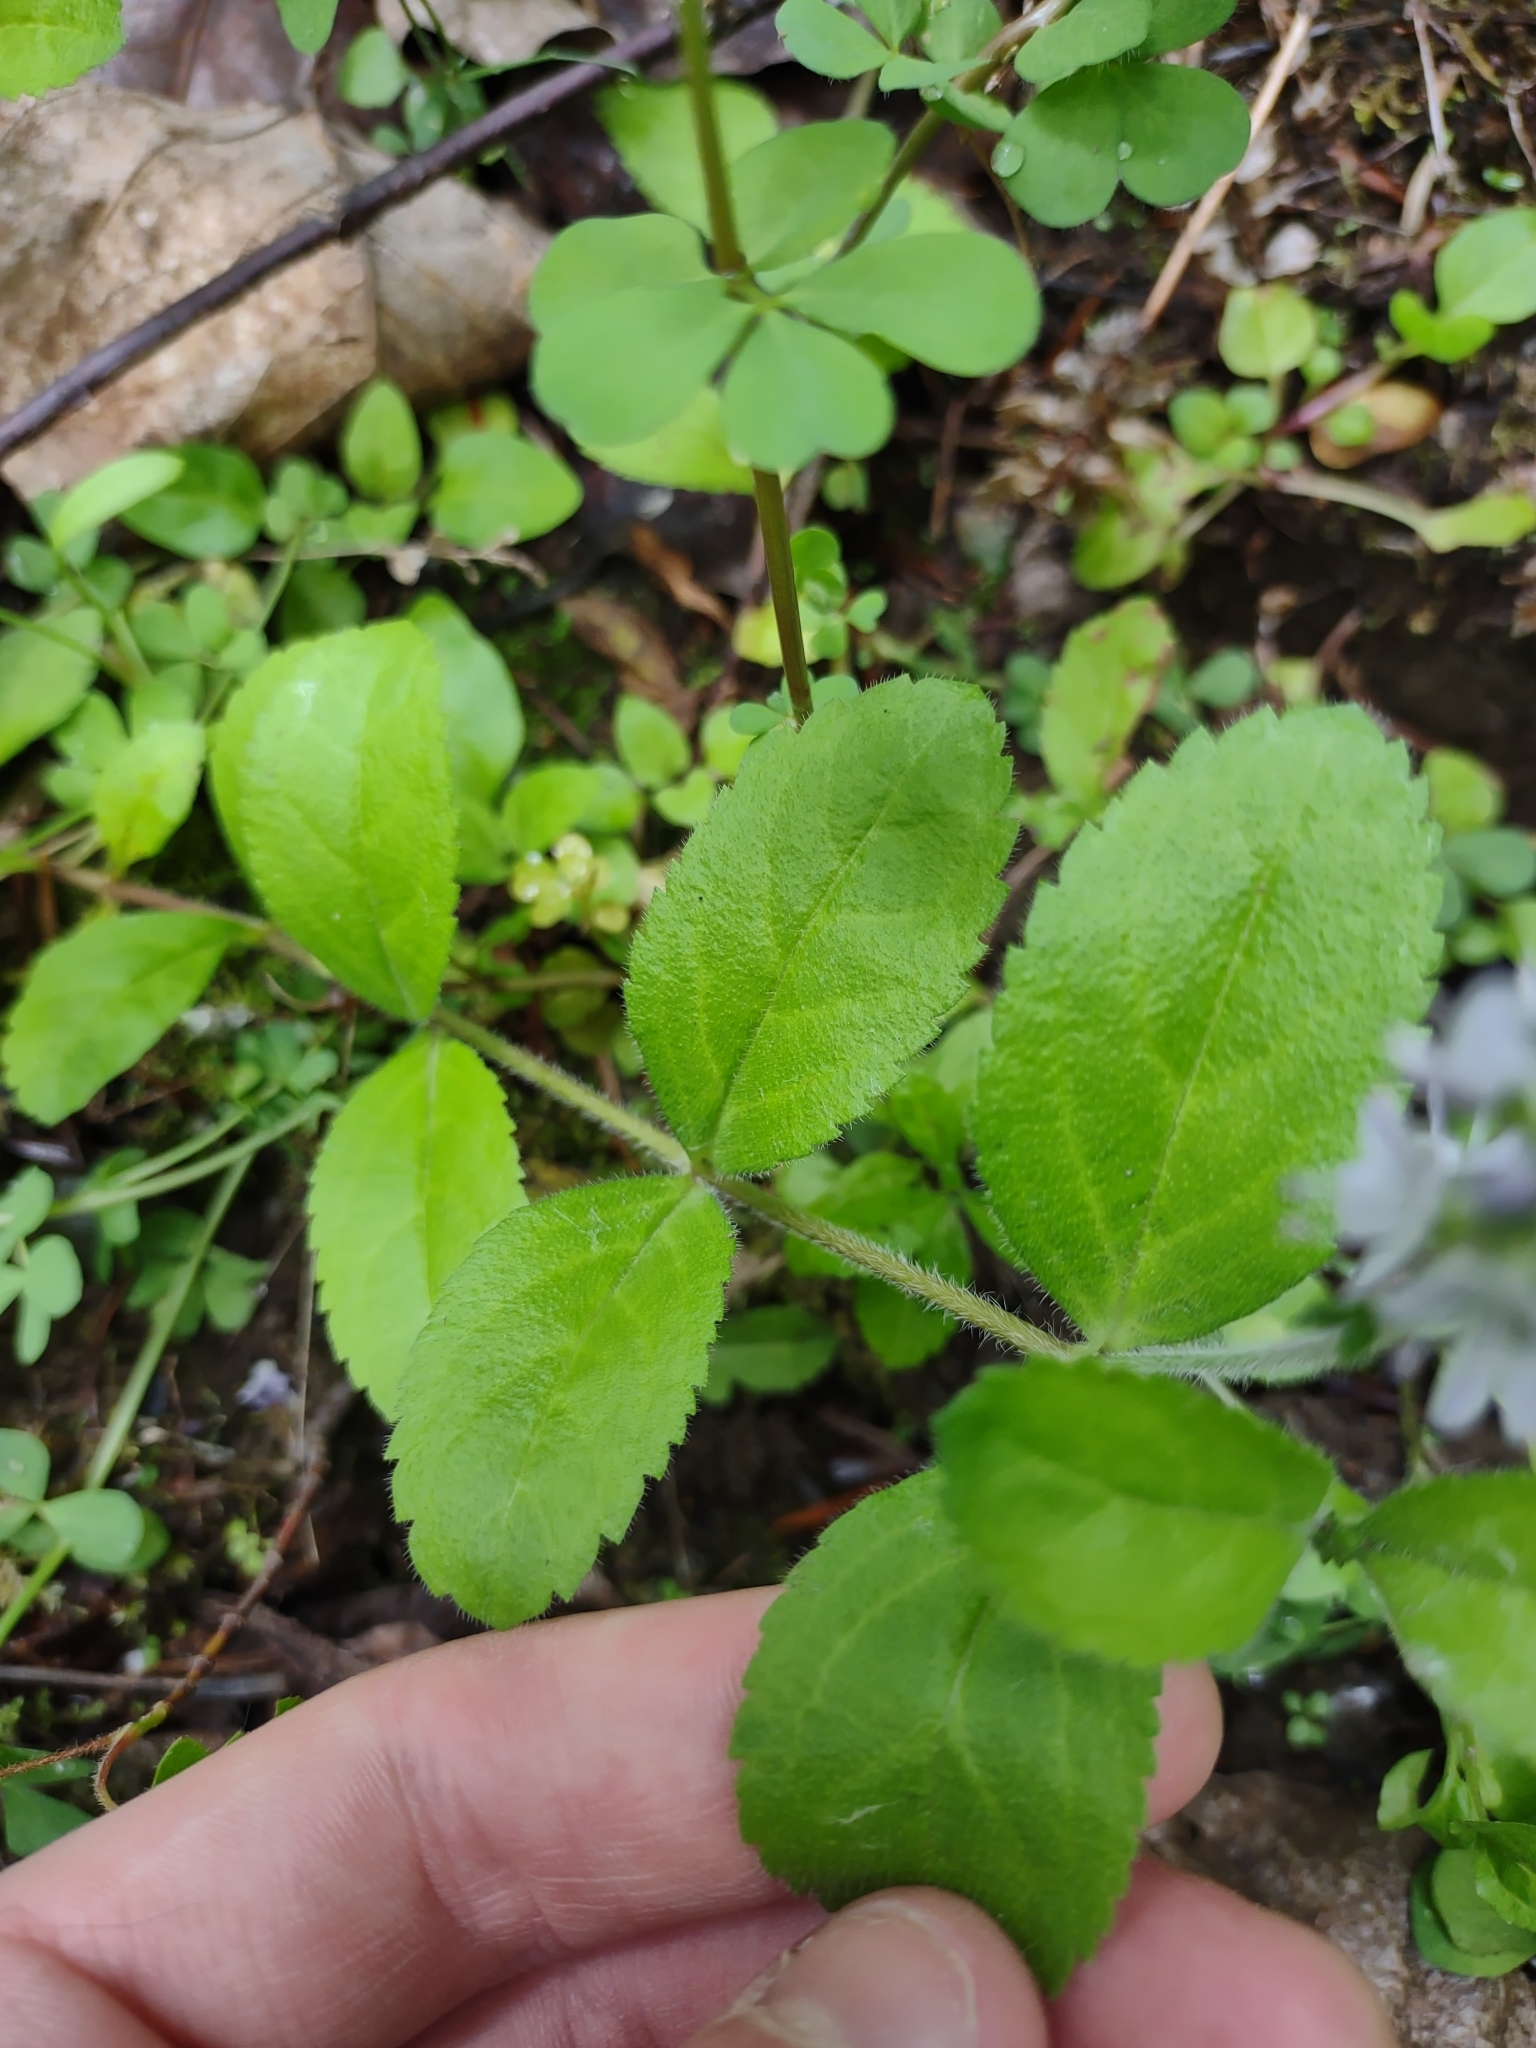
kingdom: Plantae
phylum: Tracheophyta
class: Magnoliopsida
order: Lamiales
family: Plantaginaceae
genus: Veronica
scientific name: Veronica officinalis
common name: Common speedwell
